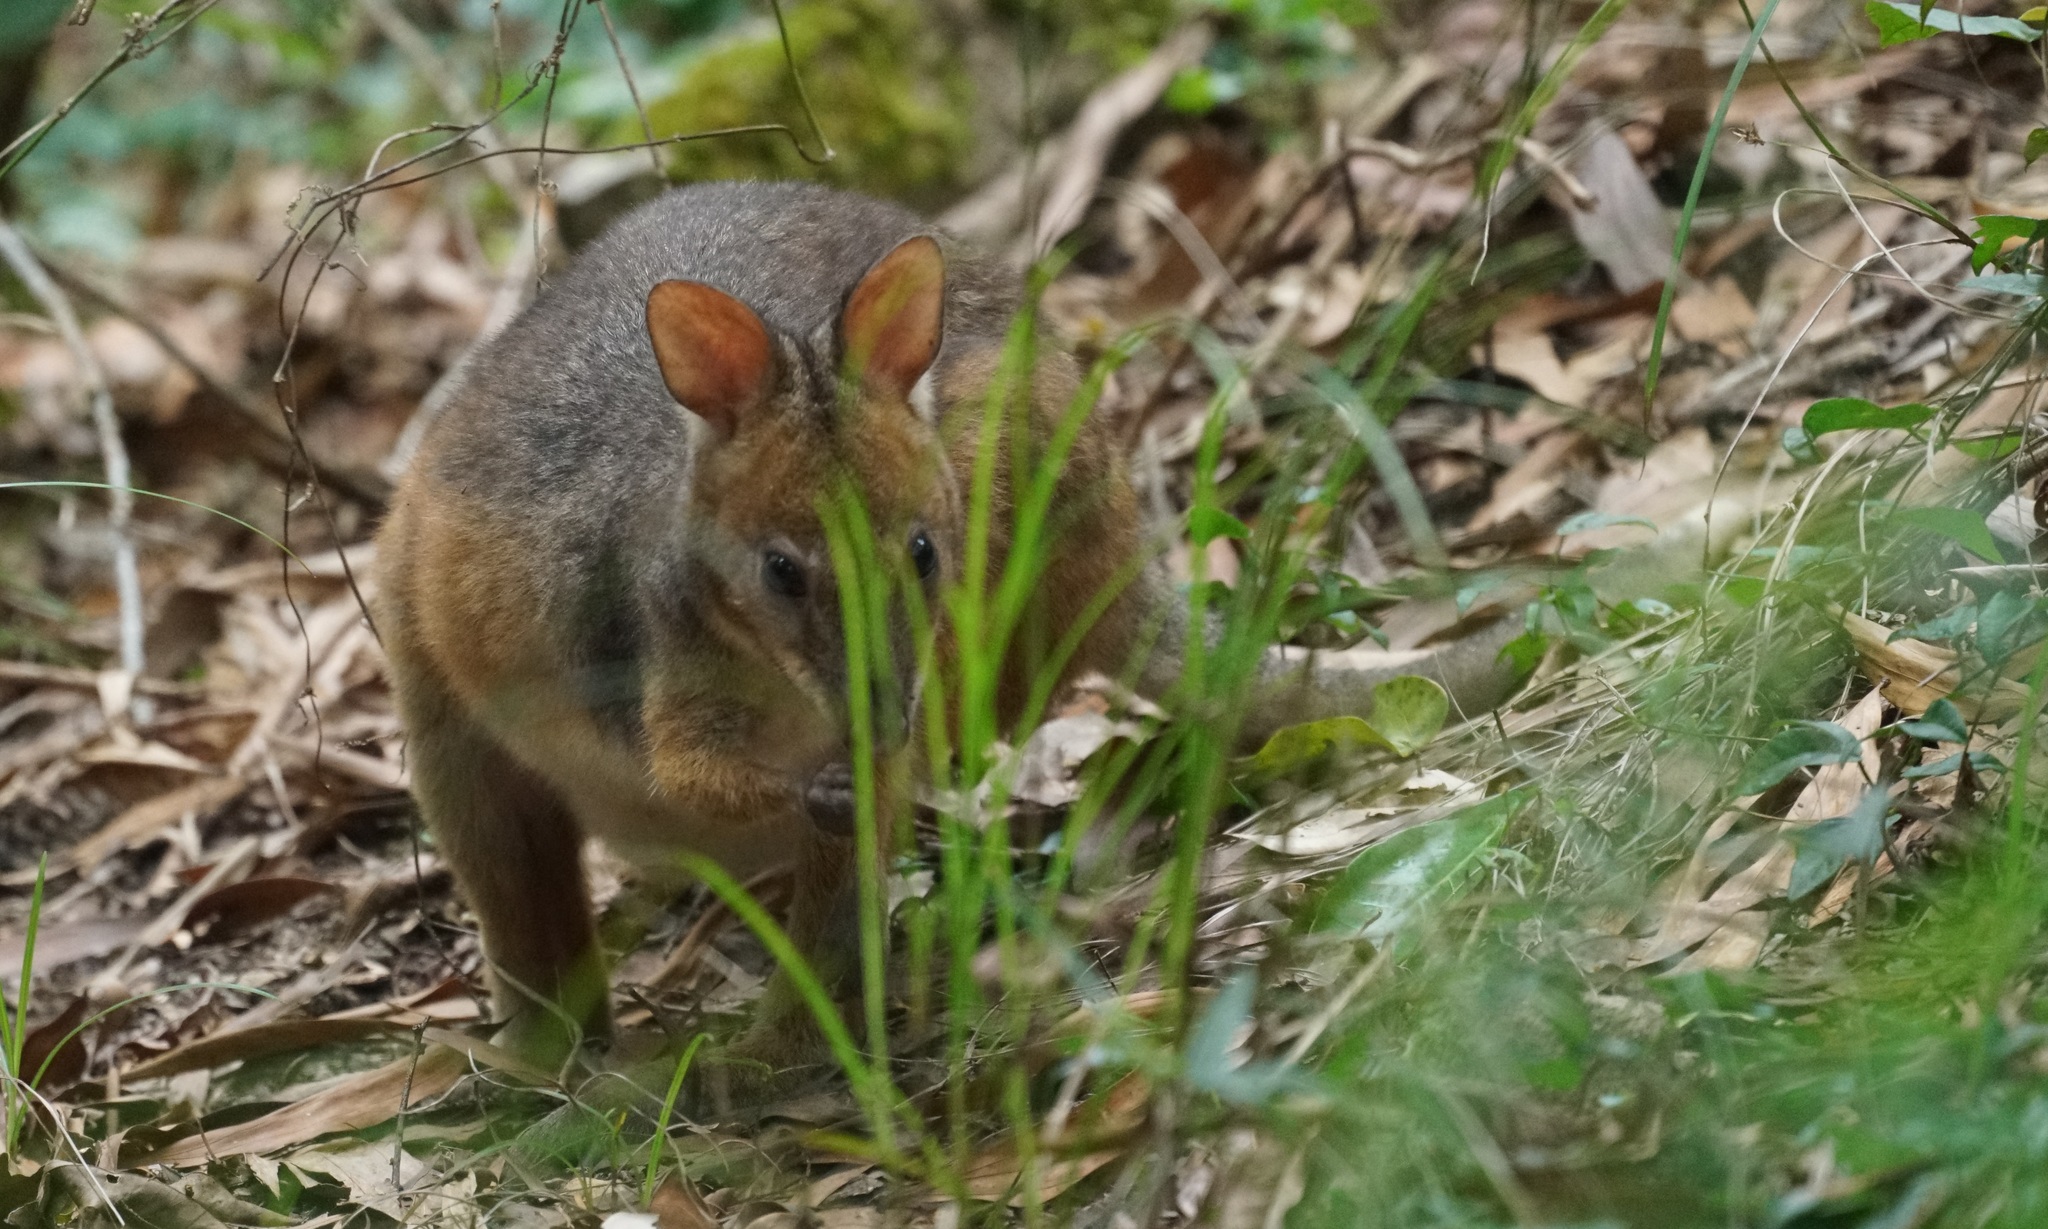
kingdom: Animalia
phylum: Chordata
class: Mammalia
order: Diprotodontia
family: Macropodidae
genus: Thylogale
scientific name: Thylogale stigmatica
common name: Red-legged pademelon
